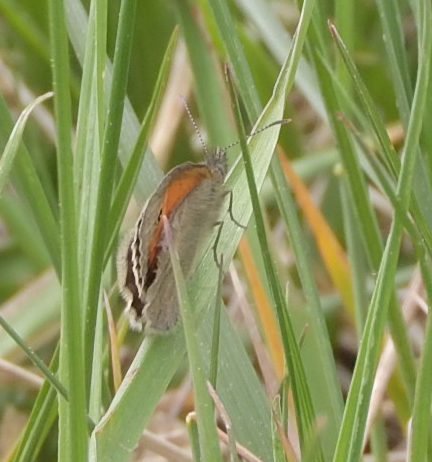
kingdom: Animalia
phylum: Arthropoda
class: Insecta
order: Lepidoptera
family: Nymphalidae
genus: Coenonympha
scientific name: Coenonympha pamphilus
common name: Small heath
